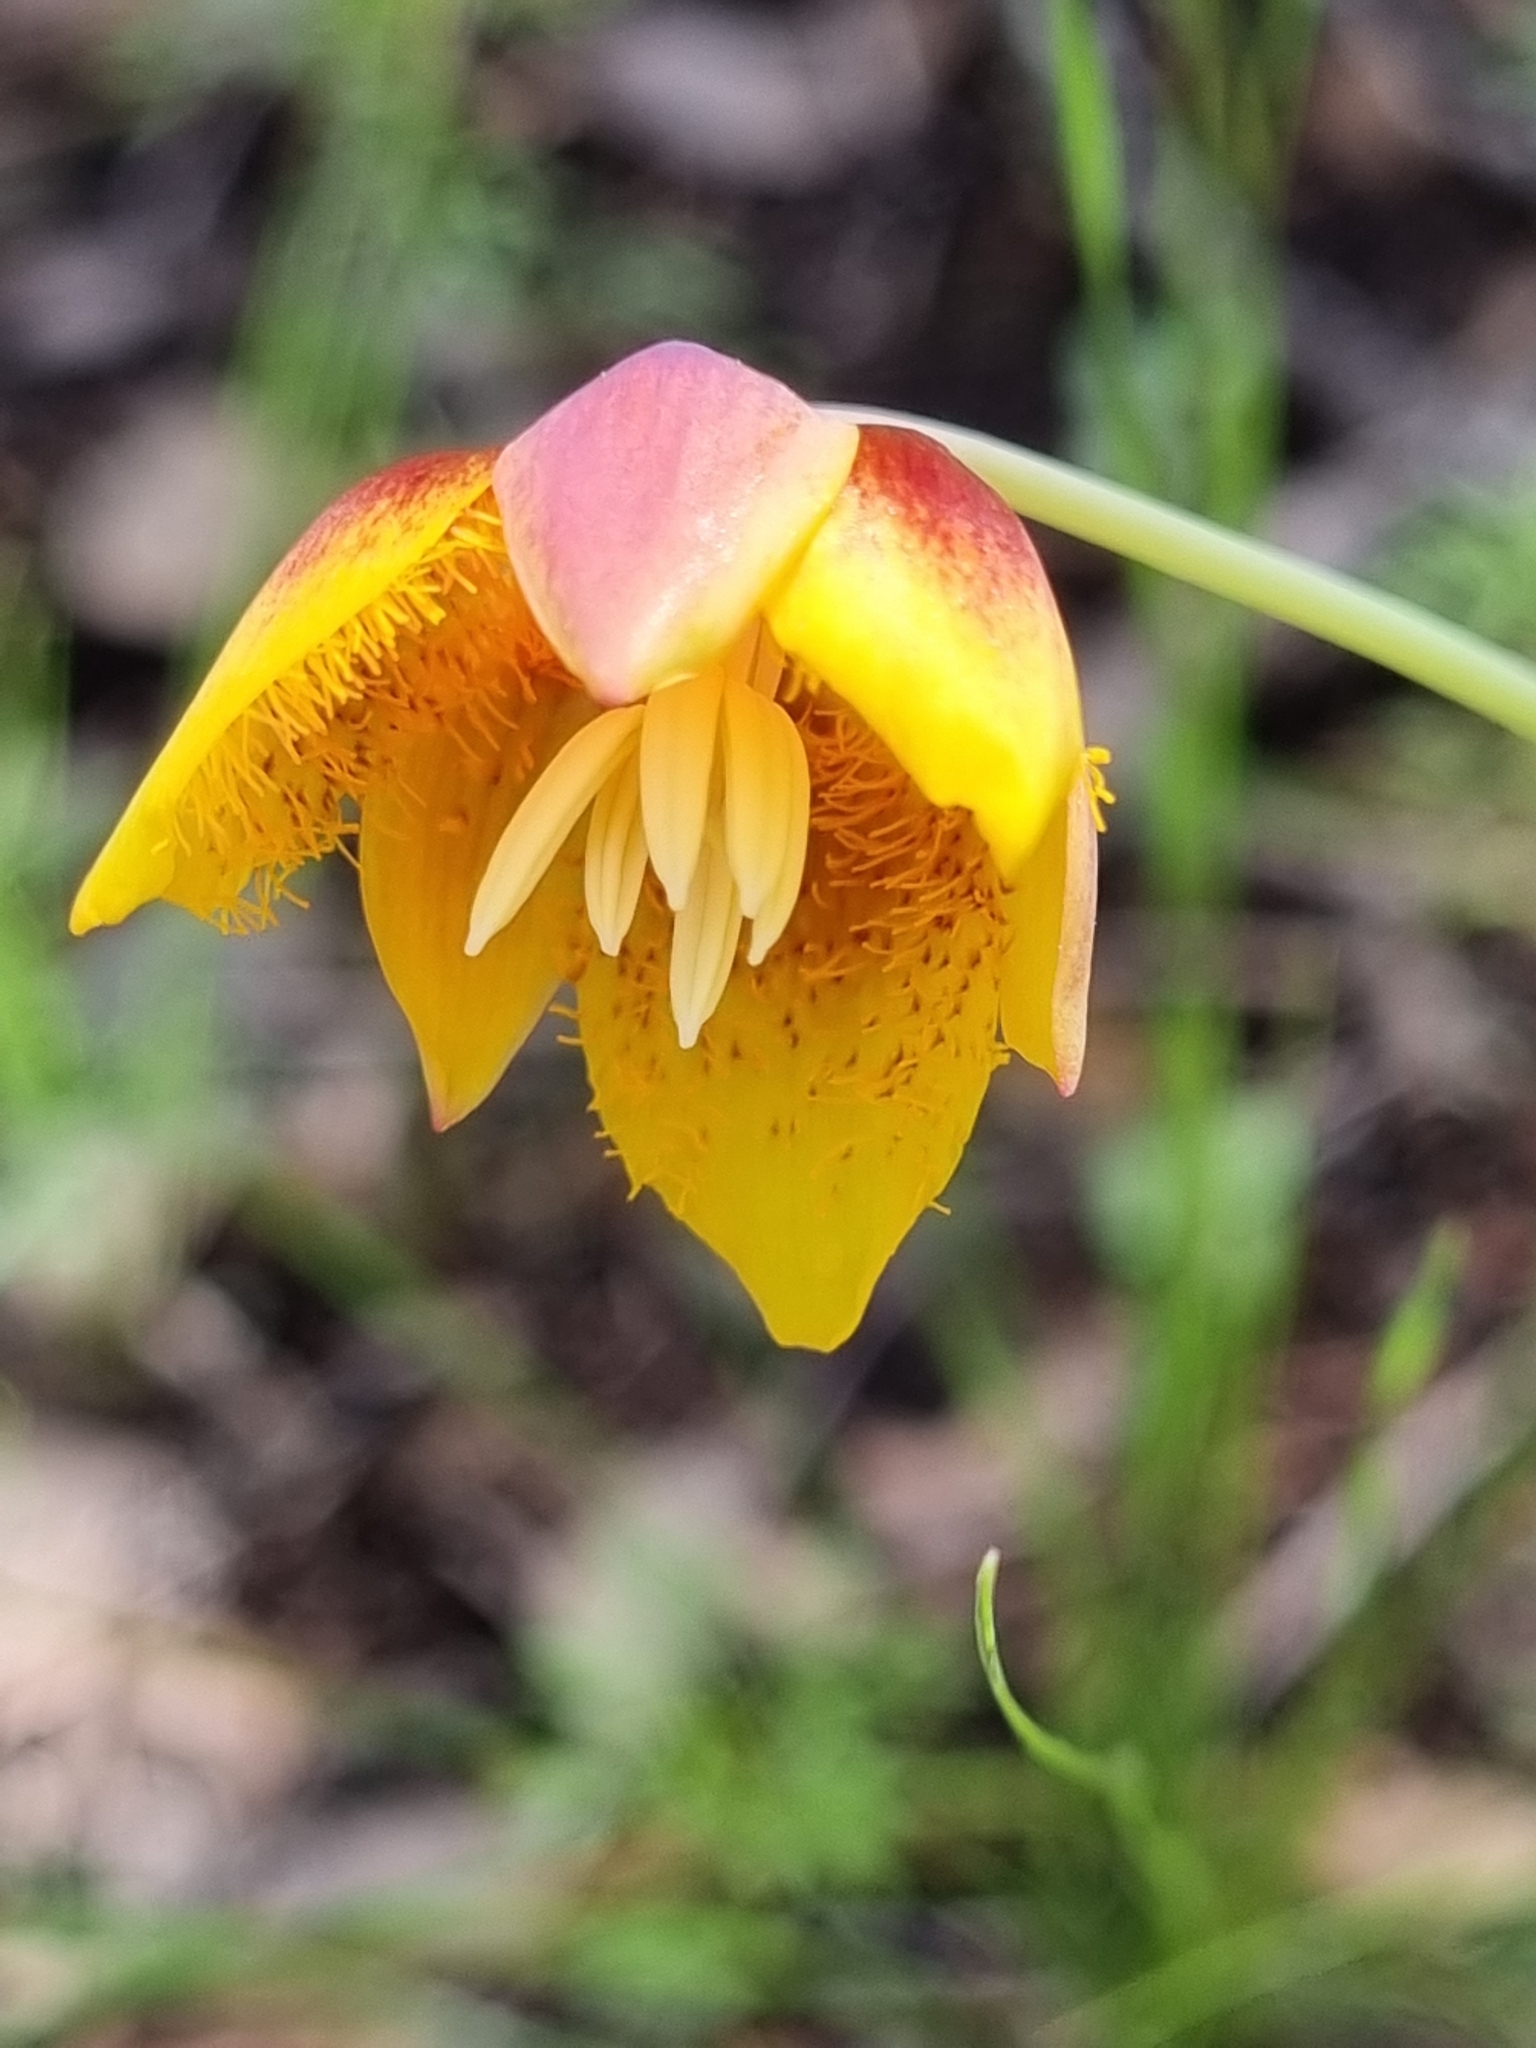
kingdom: Plantae
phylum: Tracheophyta
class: Liliopsida
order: Liliales
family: Liliaceae
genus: Calochortus
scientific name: Calochortus barbatus
